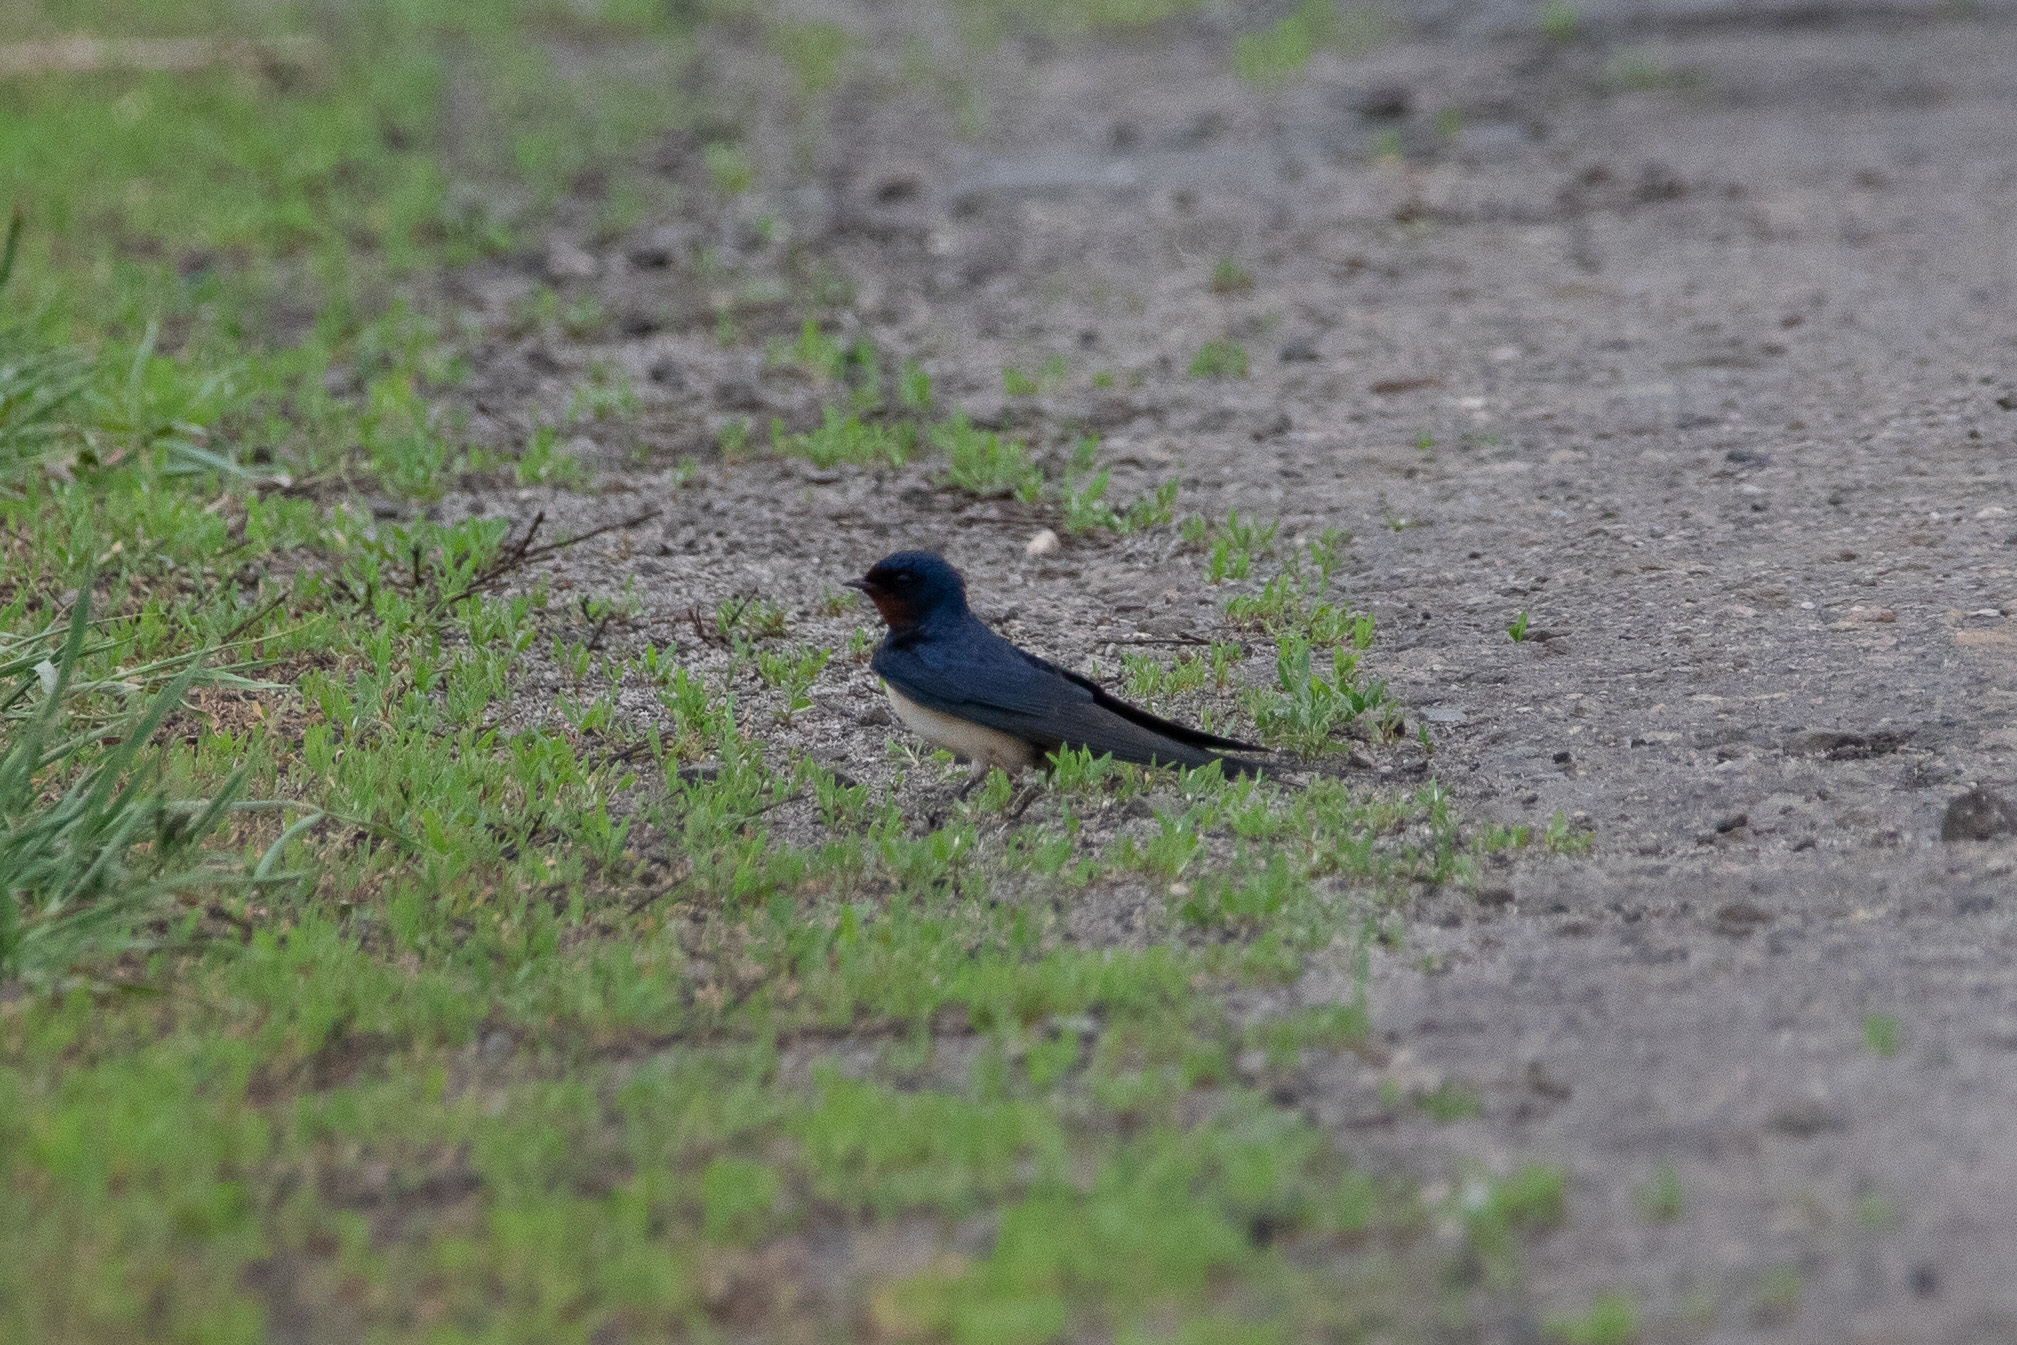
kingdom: Animalia
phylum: Chordata
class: Aves
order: Passeriformes
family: Hirundinidae
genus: Hirundo
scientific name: Hirundo rustica
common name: Barn swallow
